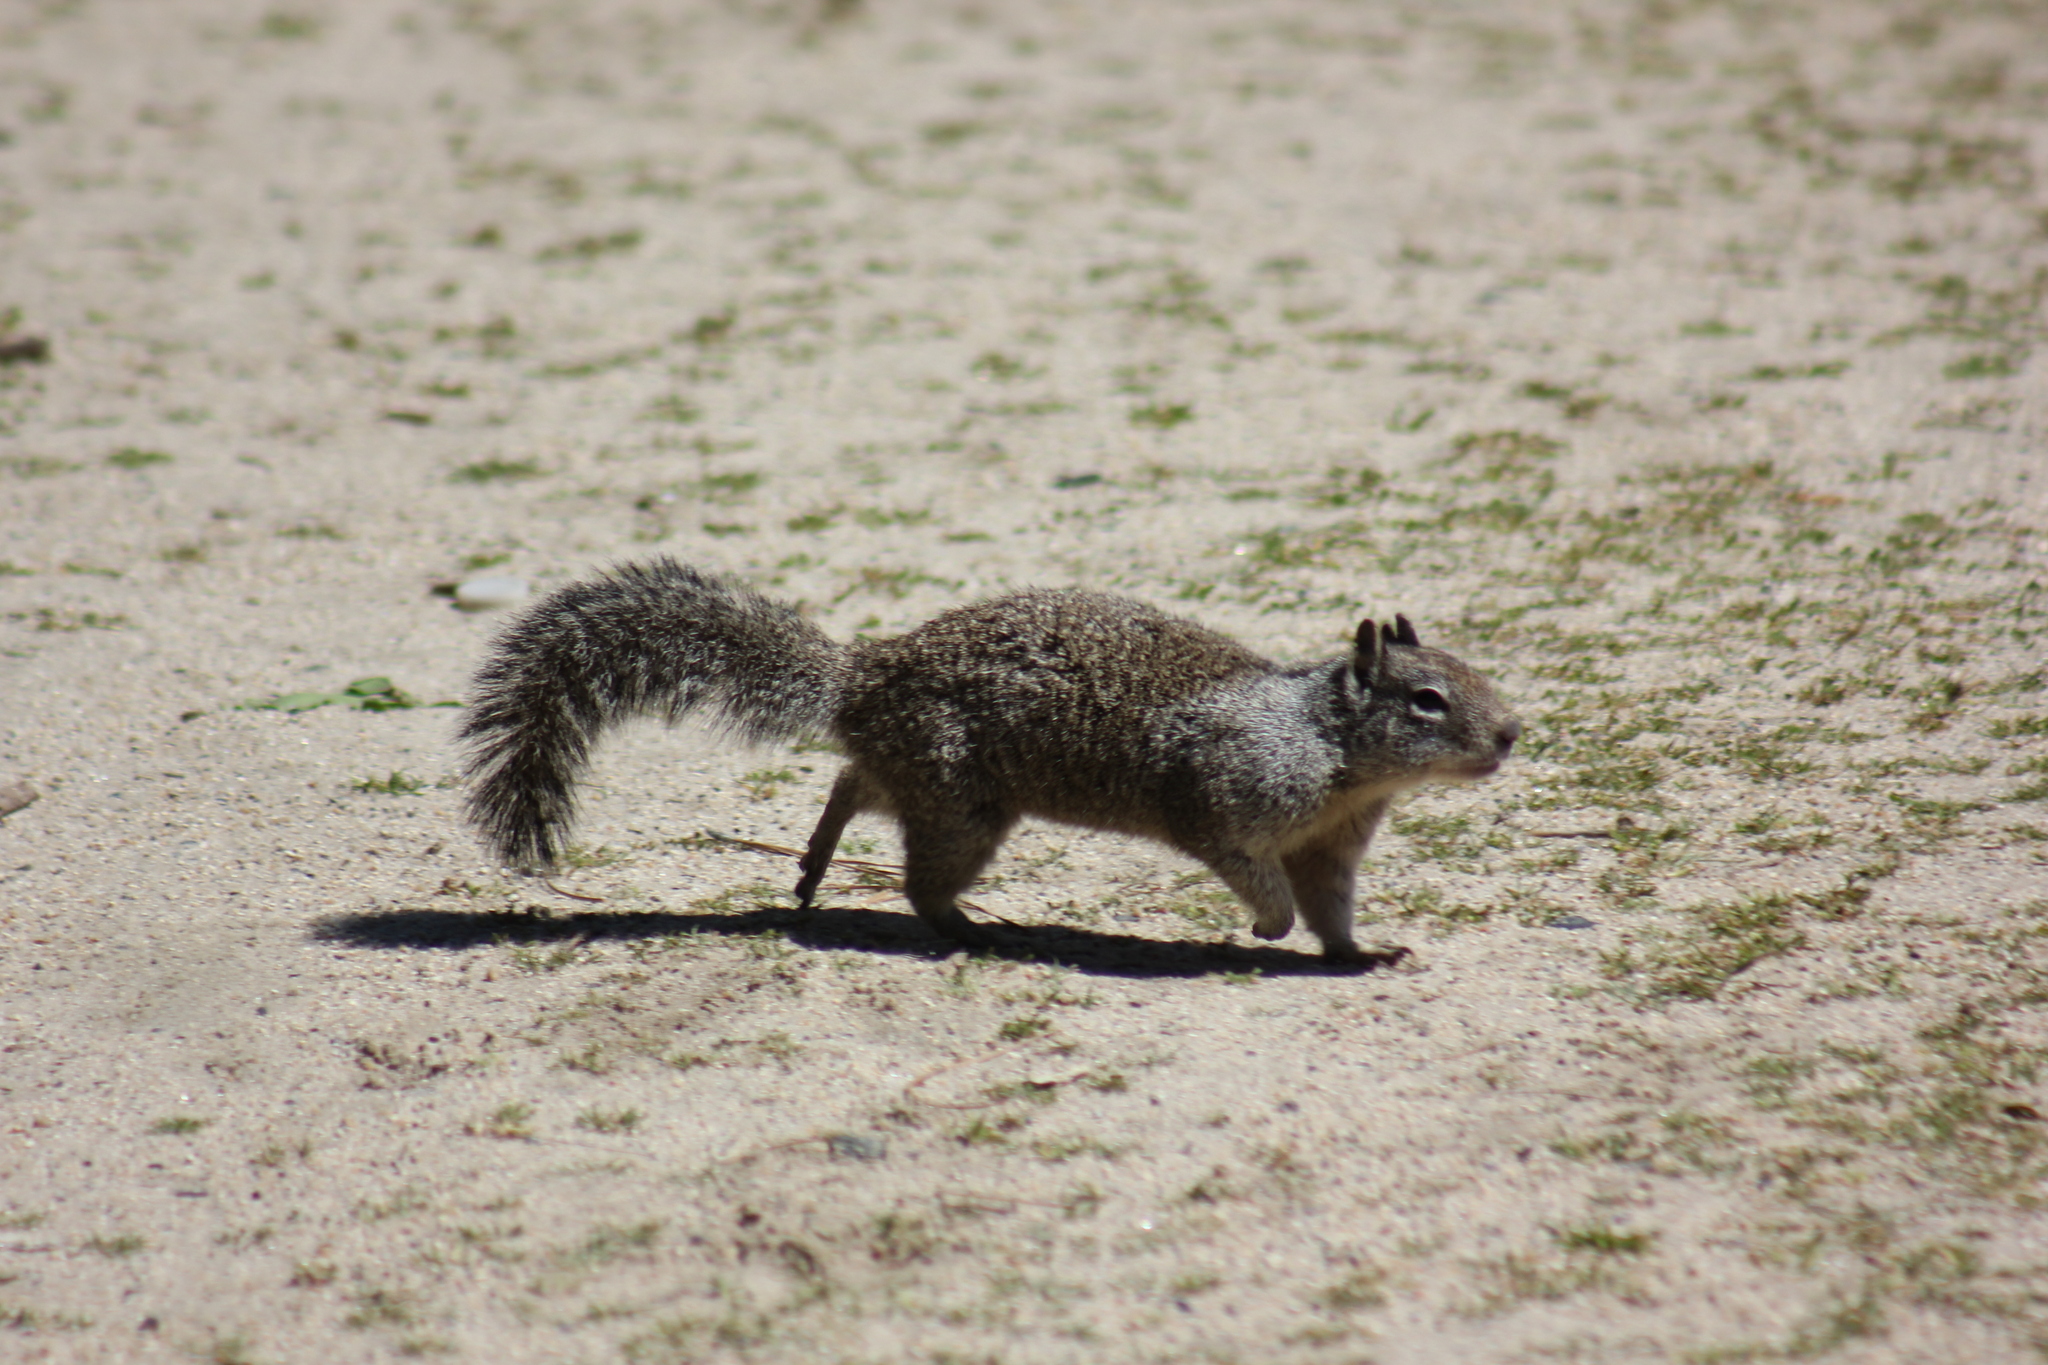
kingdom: Animalia
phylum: Chordata
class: Mammalia
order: Rodentia
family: Sciuridae
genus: Otospermophilus
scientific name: Otospermophilus beecheyi
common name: California ground squirrel
